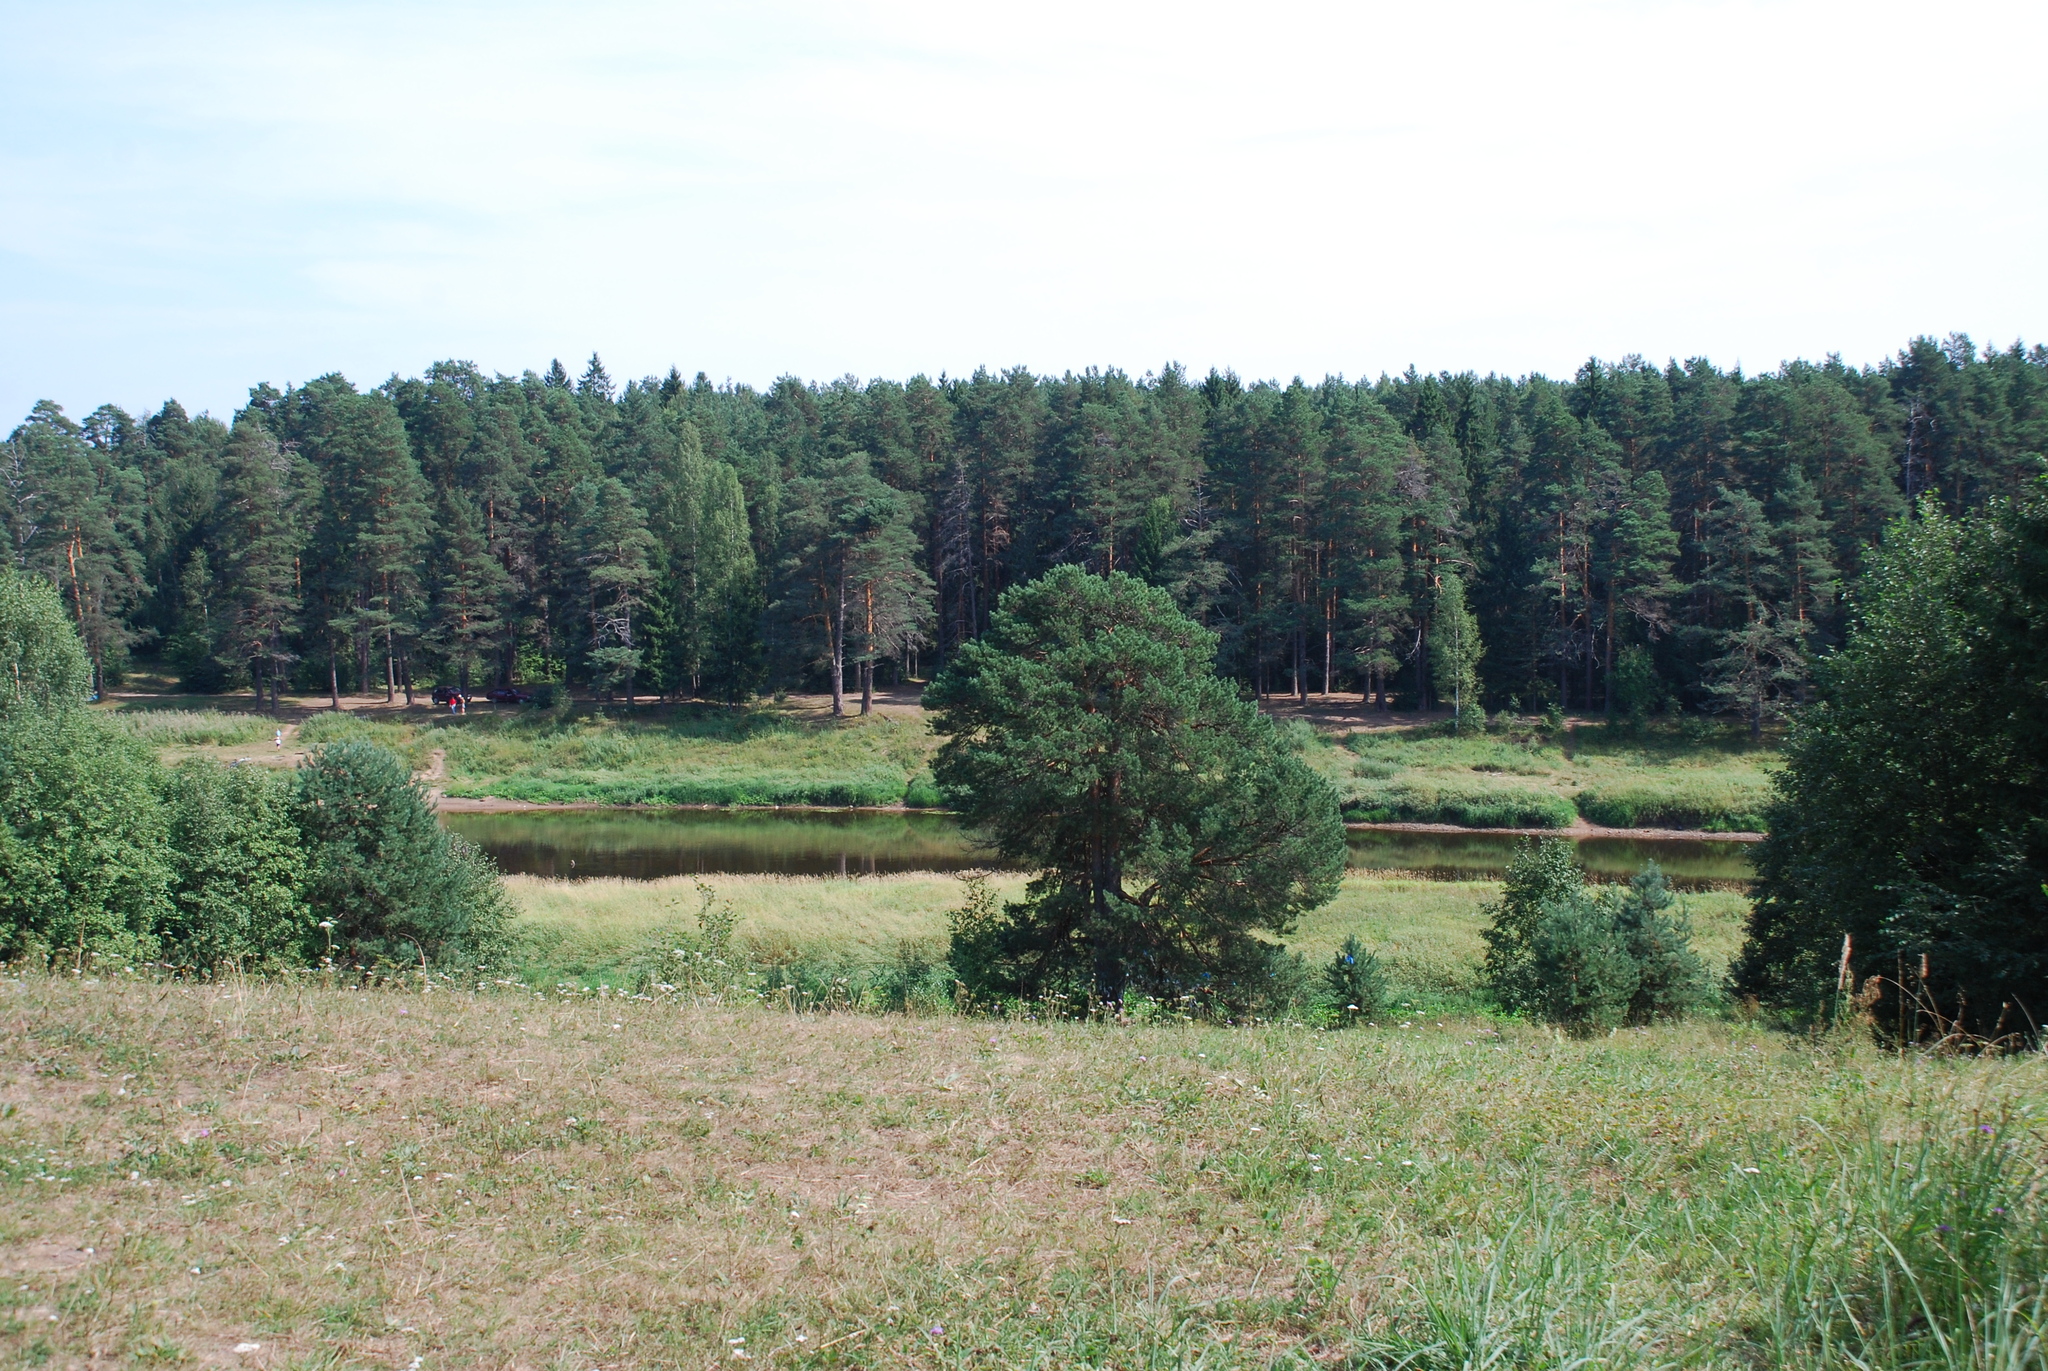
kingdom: Plantae
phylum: Tracheophyta
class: Pinopsida
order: Pinales
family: Pinaceae
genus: Pinus
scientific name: Pinus sylvestris
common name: Scots pine
